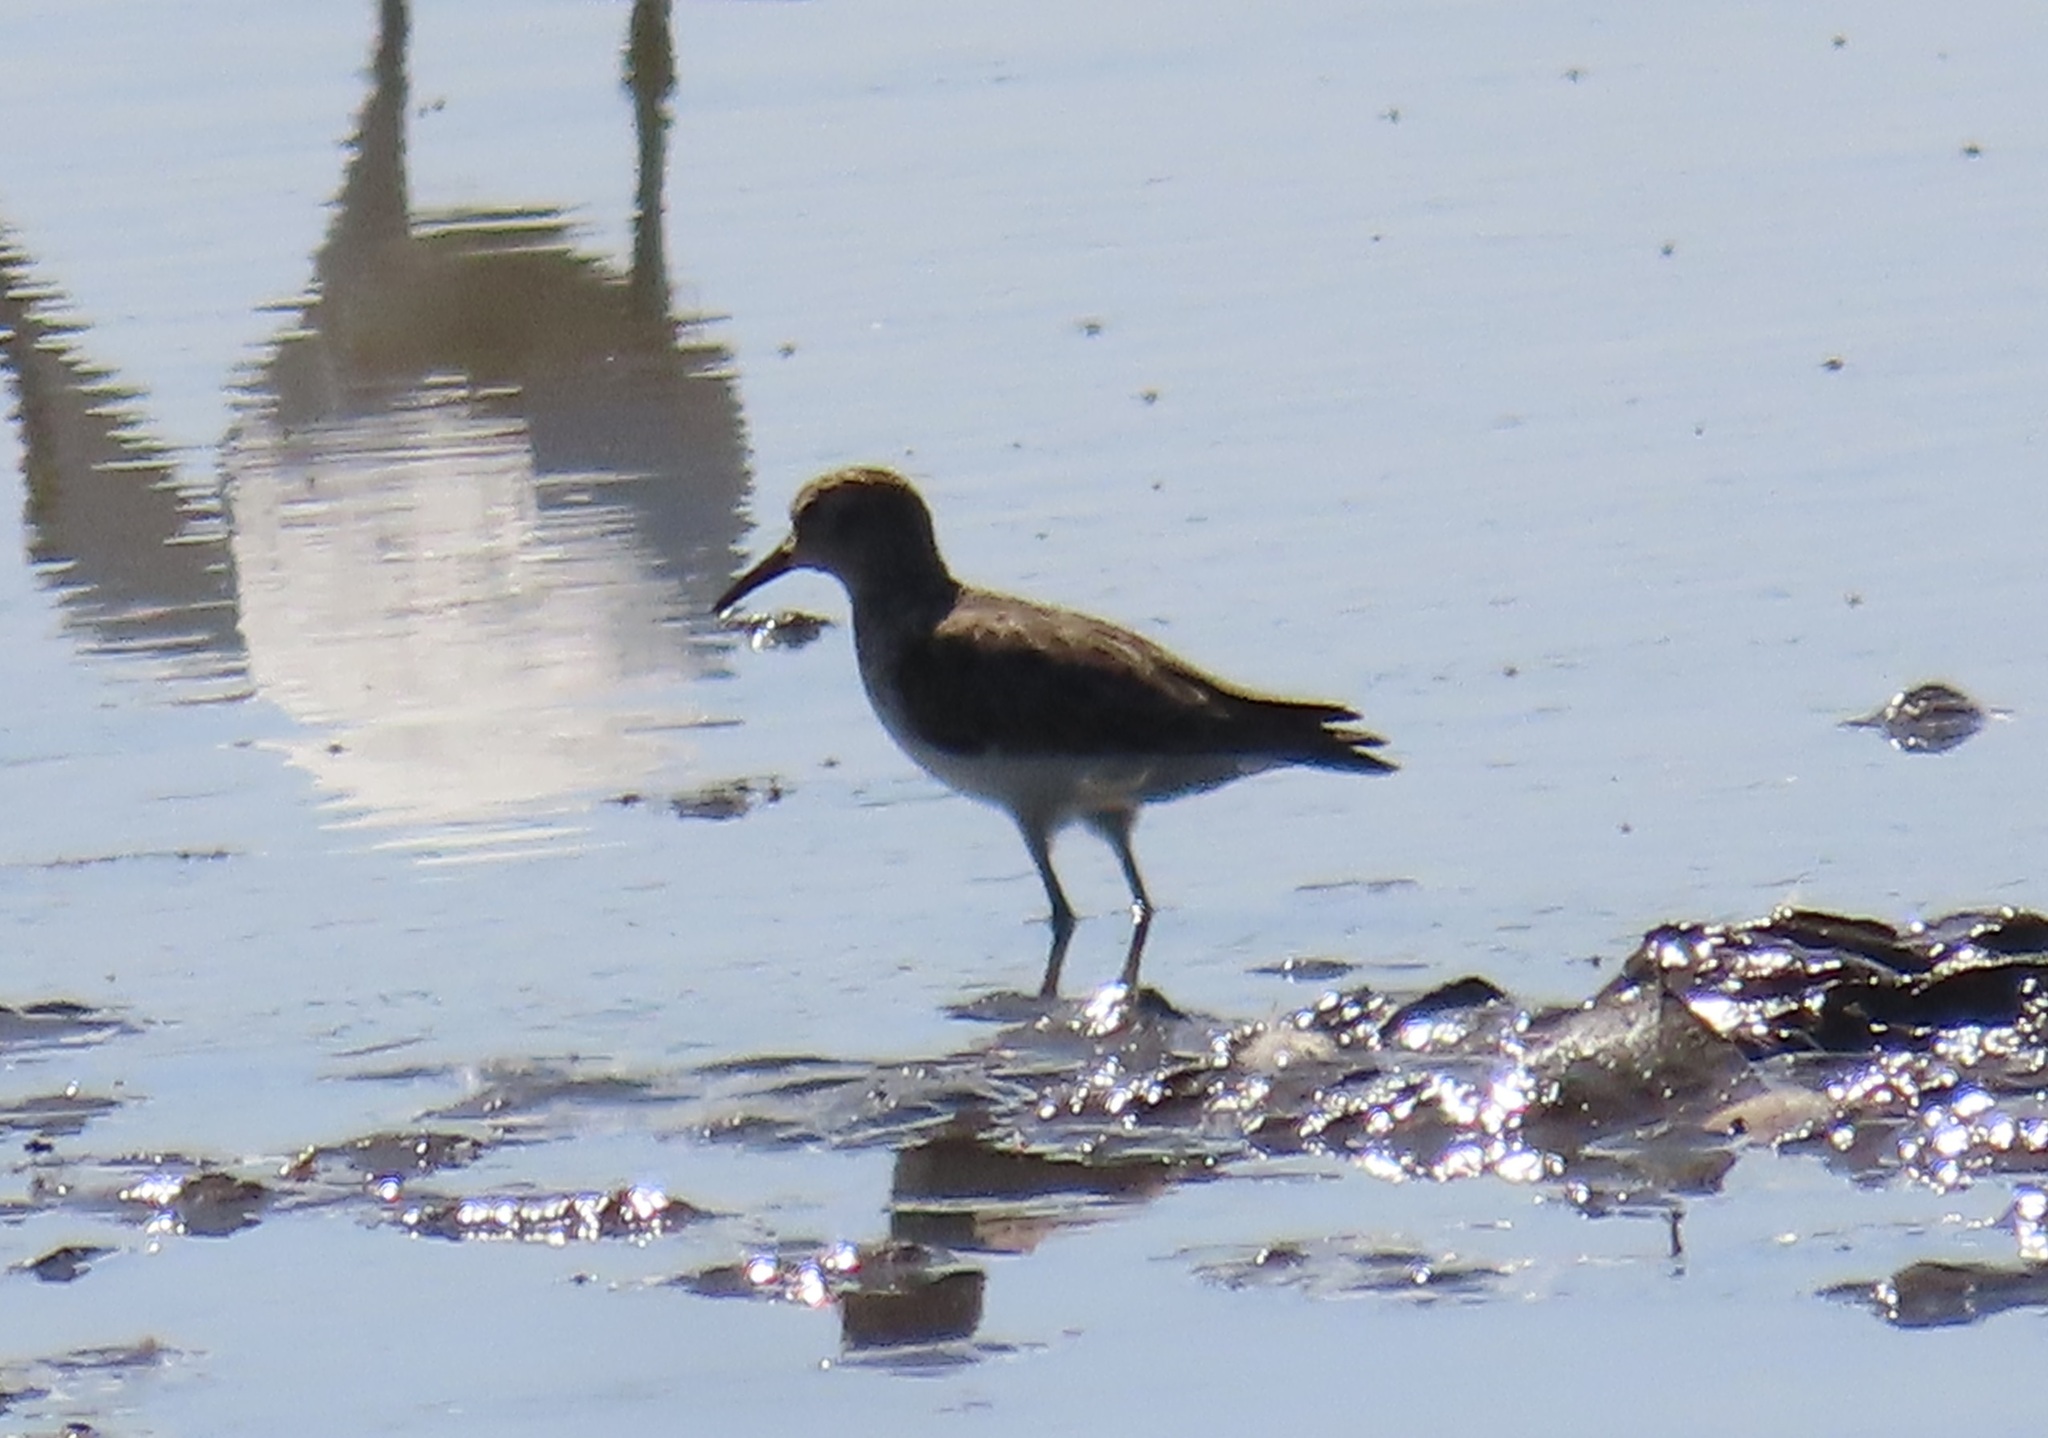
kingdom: Animalia
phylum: Chordata
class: Aves
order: Charadriiformes
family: Scolopacidae
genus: Calidris
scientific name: Calidris pusilla
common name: Semipalmated sandpiper
